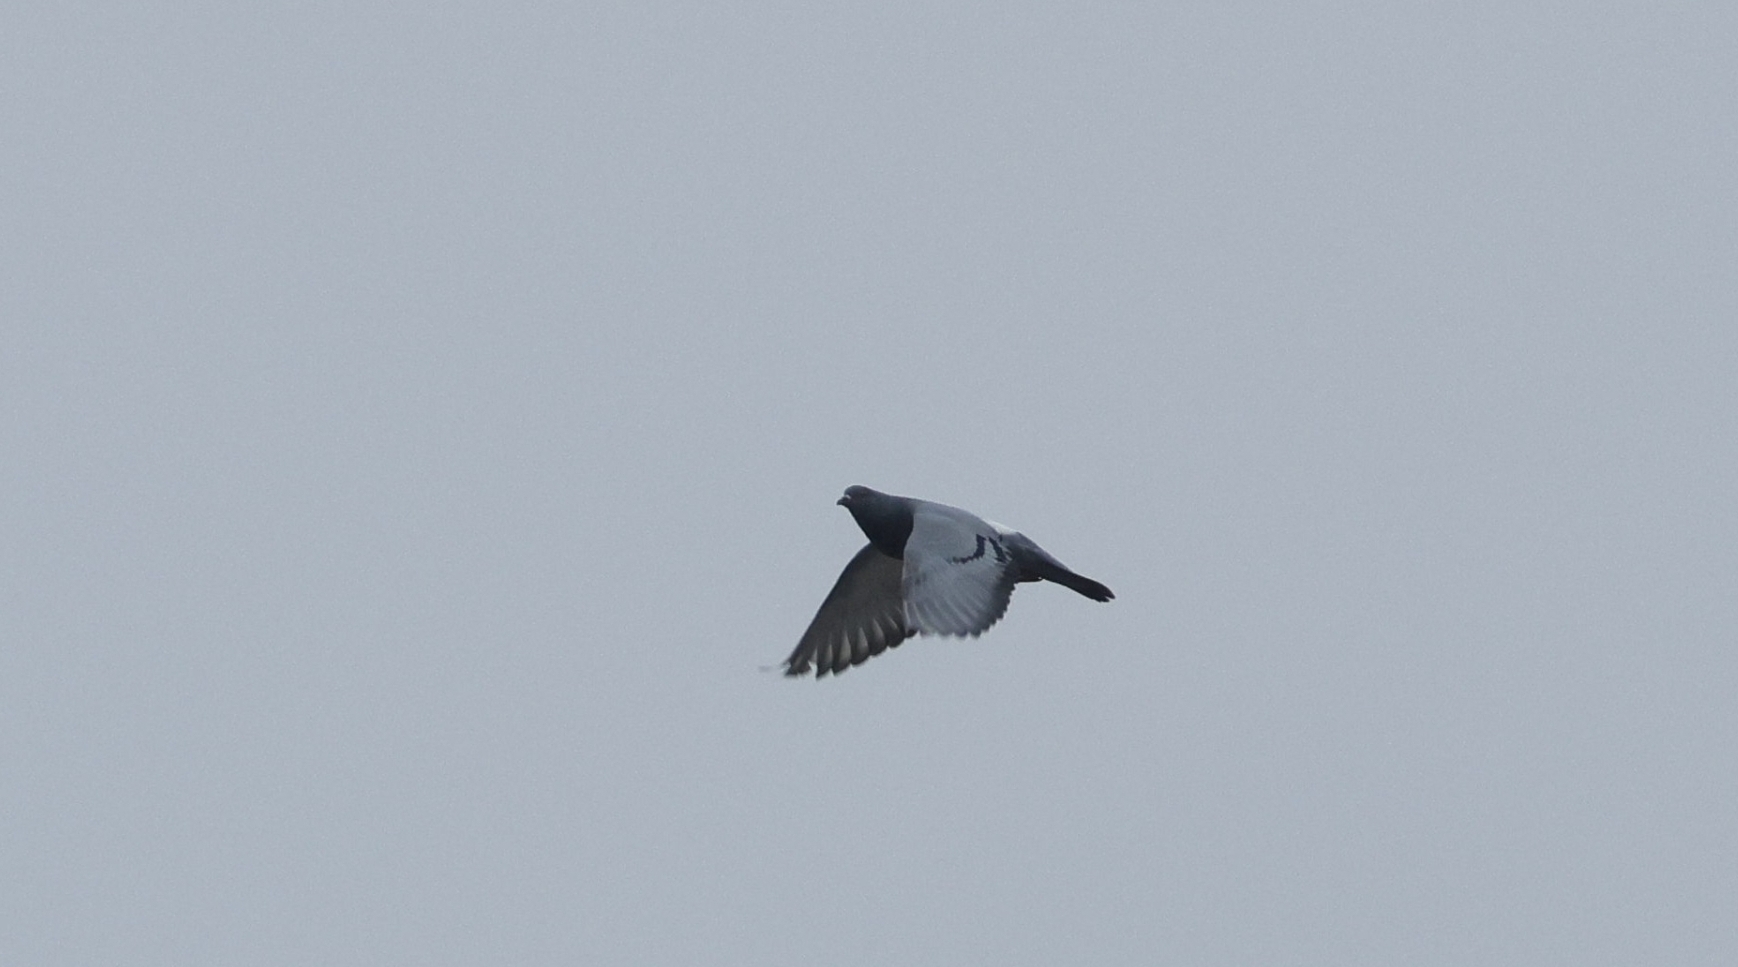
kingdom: Animalia
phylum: Chordata
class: Aves
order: Columbiformes
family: Columbidae
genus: Columba
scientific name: Columba livia
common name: Rock pigeon
